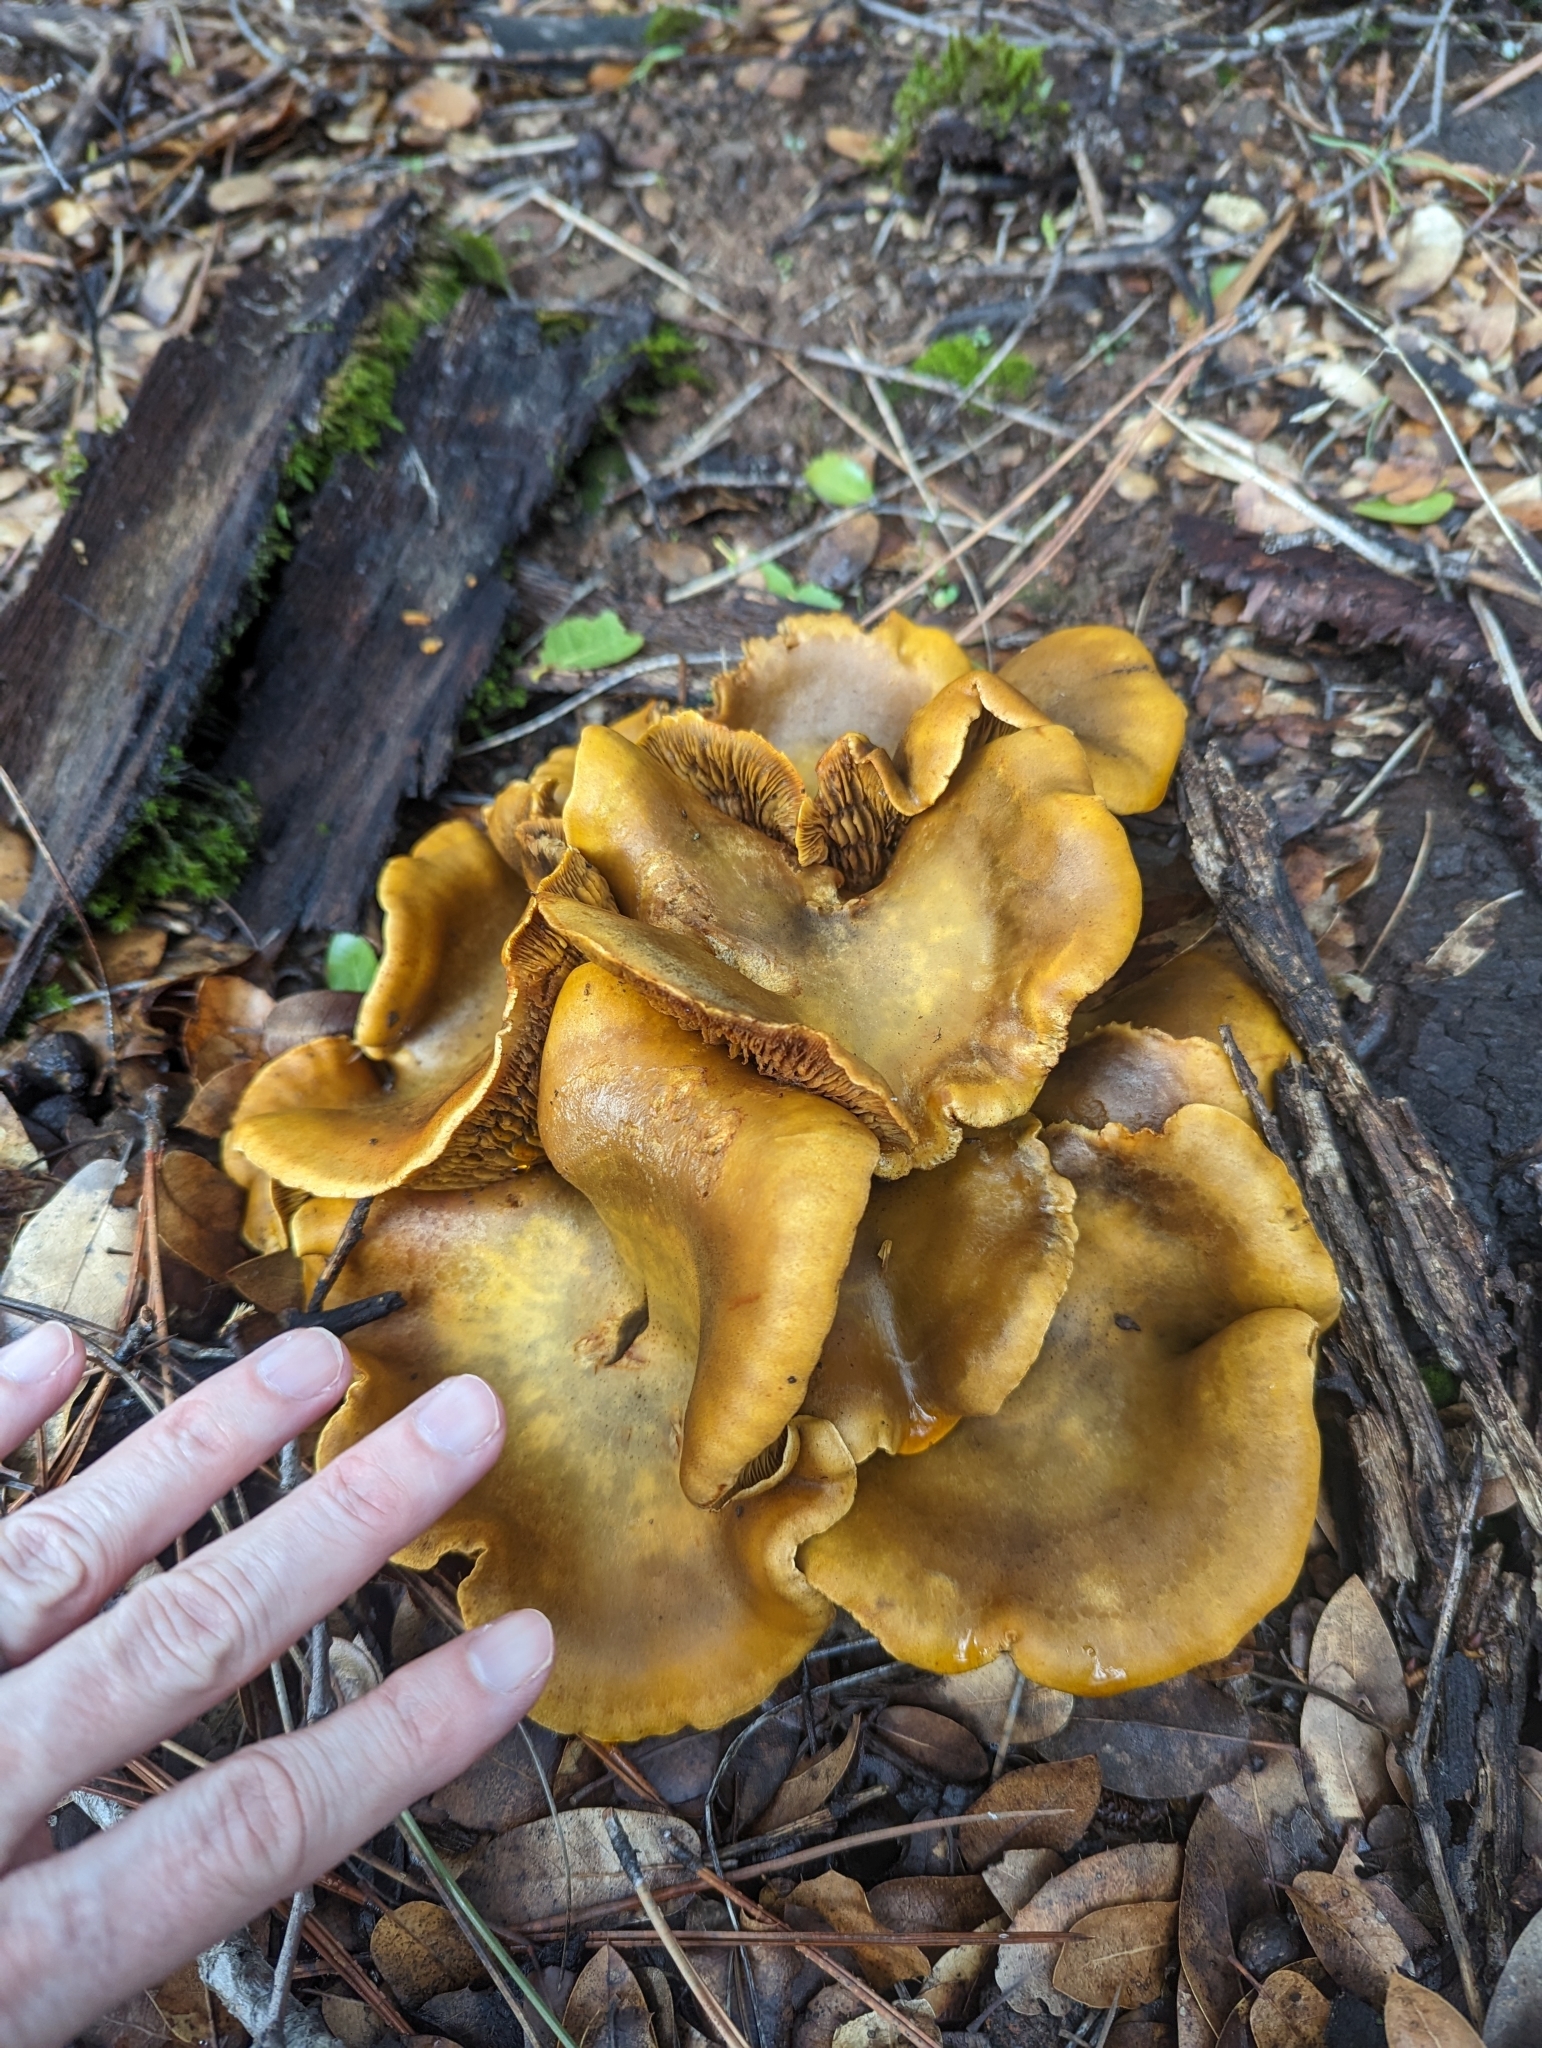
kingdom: Fungi
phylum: Basidiomycota
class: Agaricomycetes
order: Agaricales
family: Omphalotaceae
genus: Omphalotus
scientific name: Omphalotus olivascens
